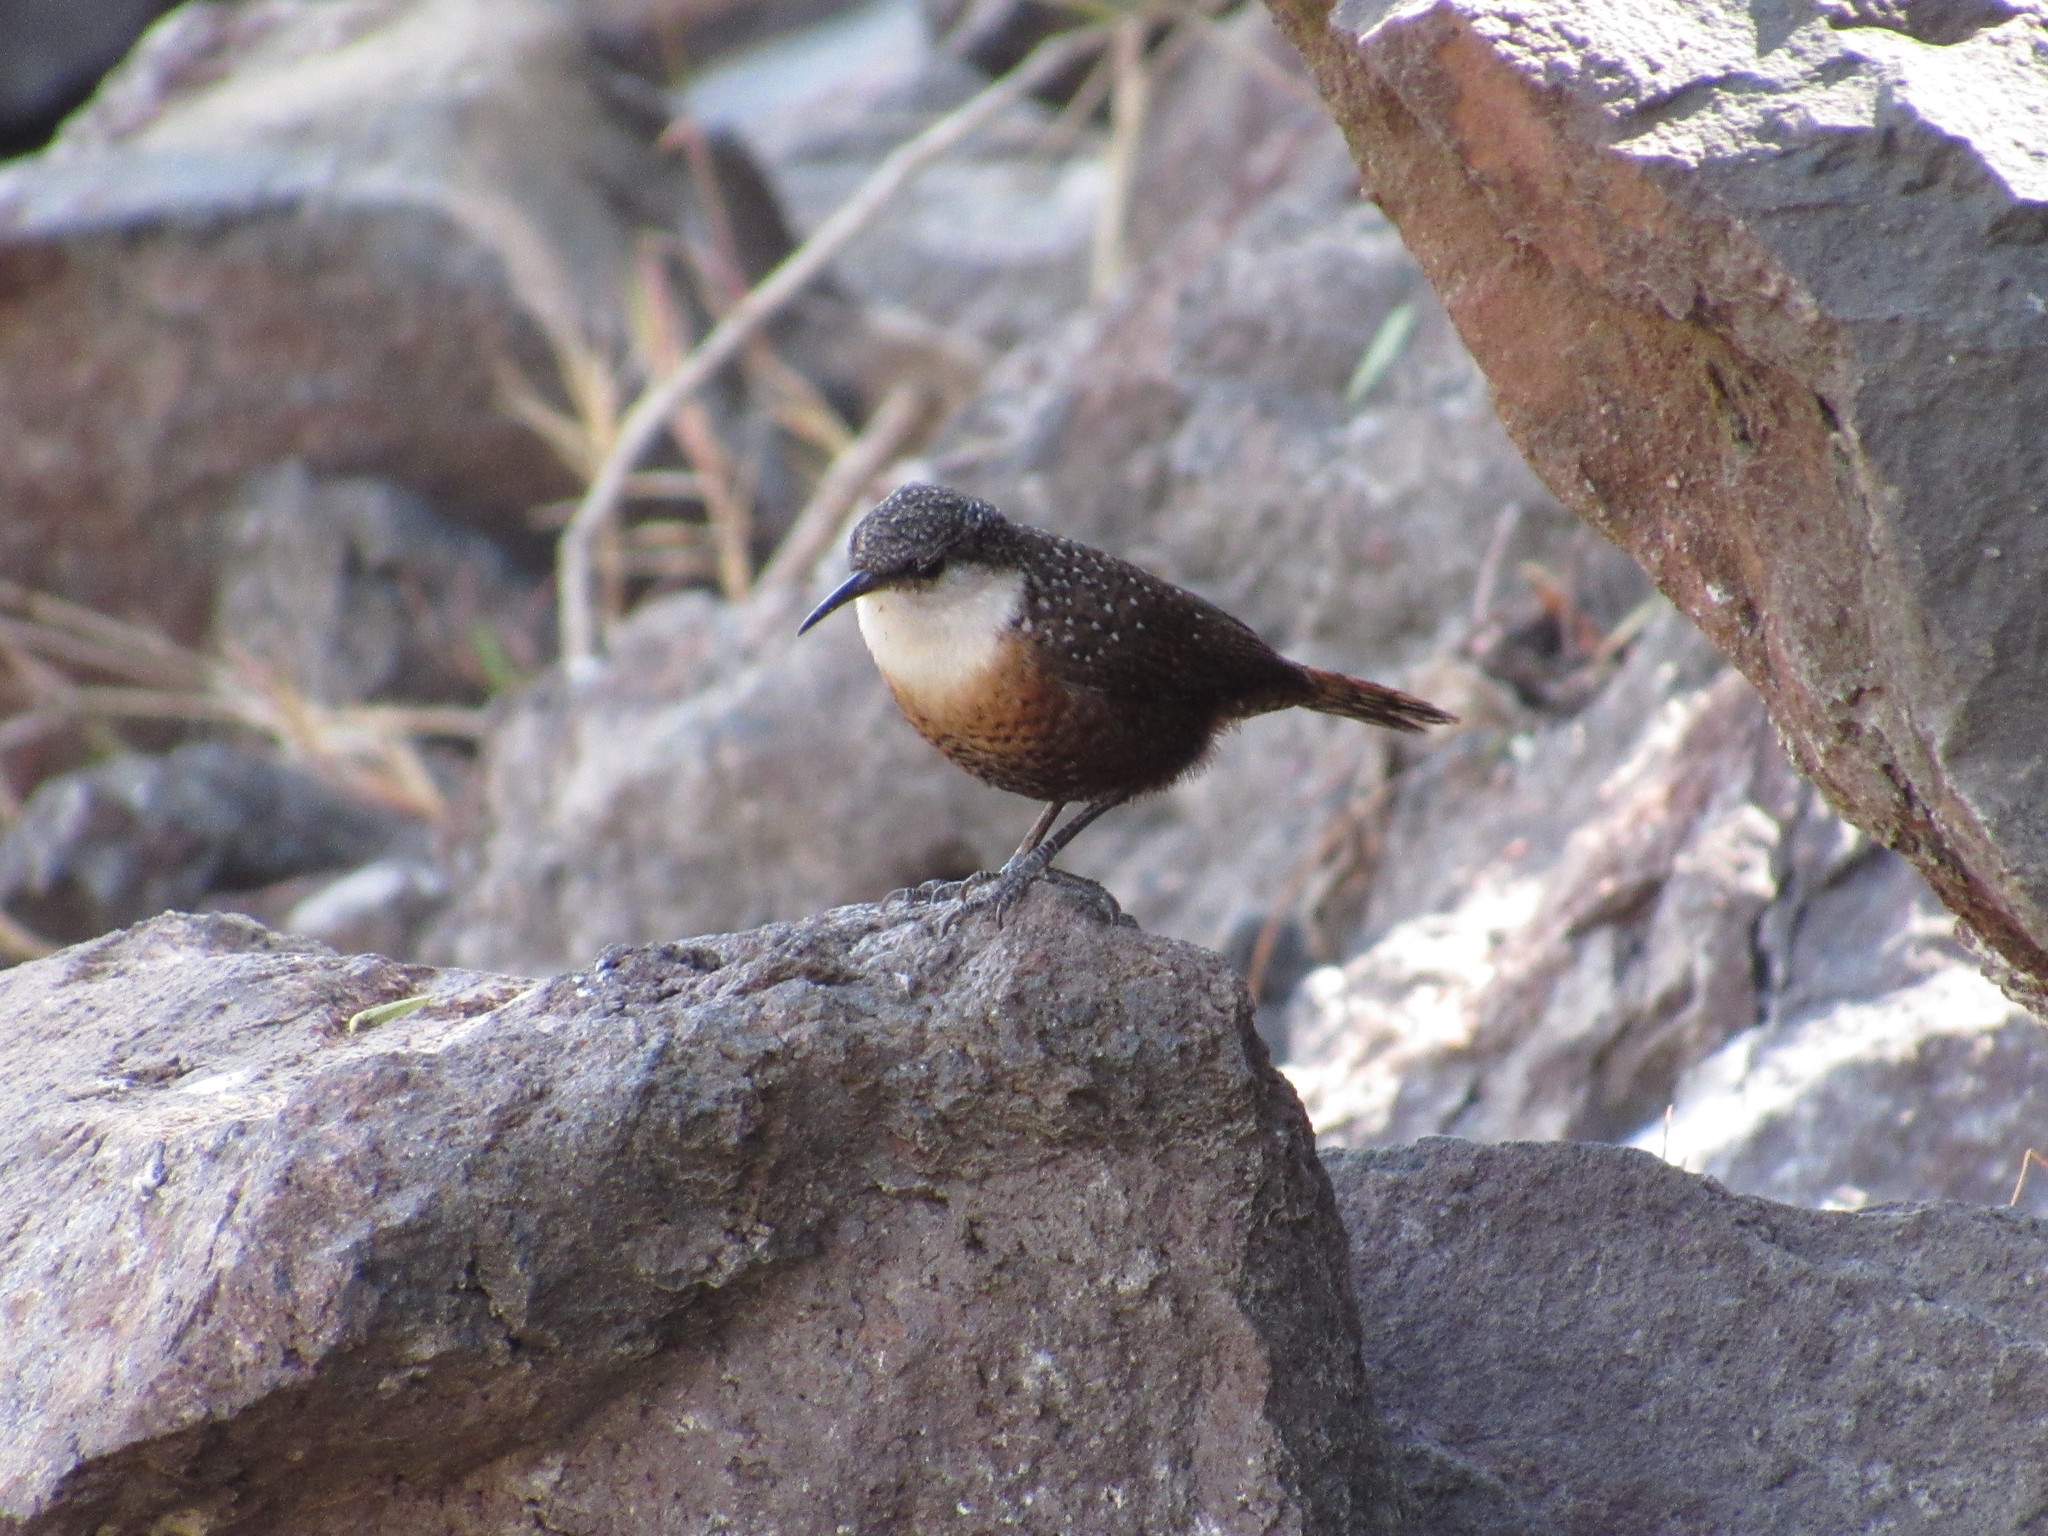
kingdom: Animalia
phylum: Chordata
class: Aves
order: Passeriformes
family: Troglodytidae
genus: Catherpes
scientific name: Catherpes mexicanus
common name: Canyon wren
